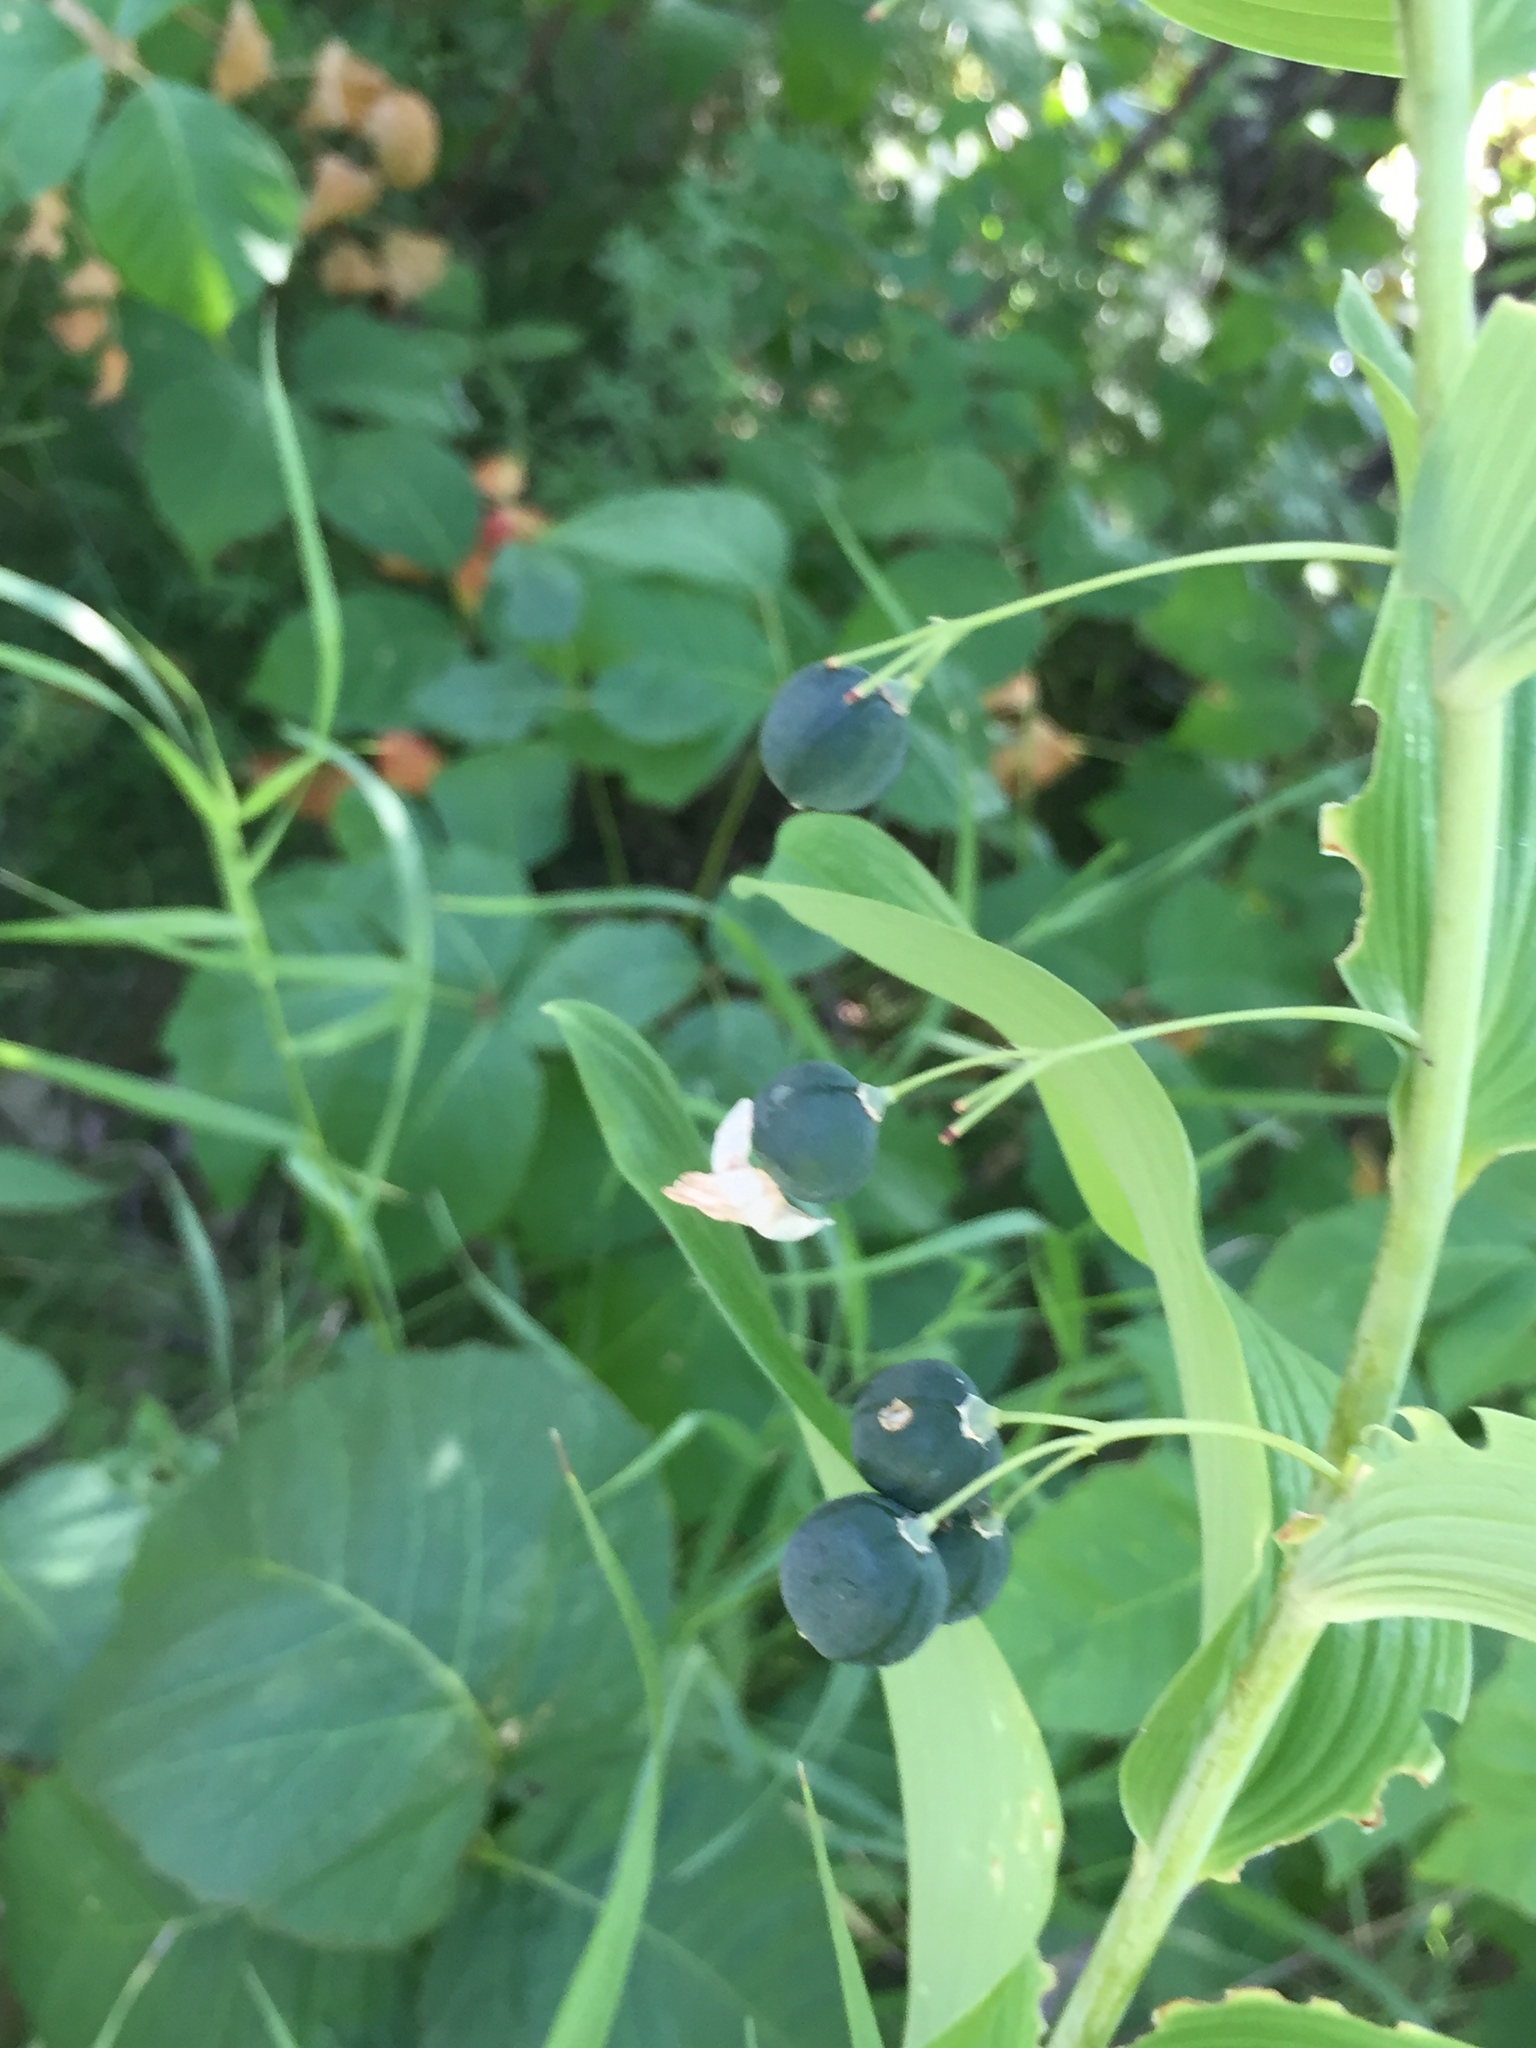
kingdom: Plantae
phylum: Tracheophyta
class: Liliopsida
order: Asparagales
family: Asparagaceae
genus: Polygonatum
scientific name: Polygonatum biflorum
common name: American solomon's-seal
